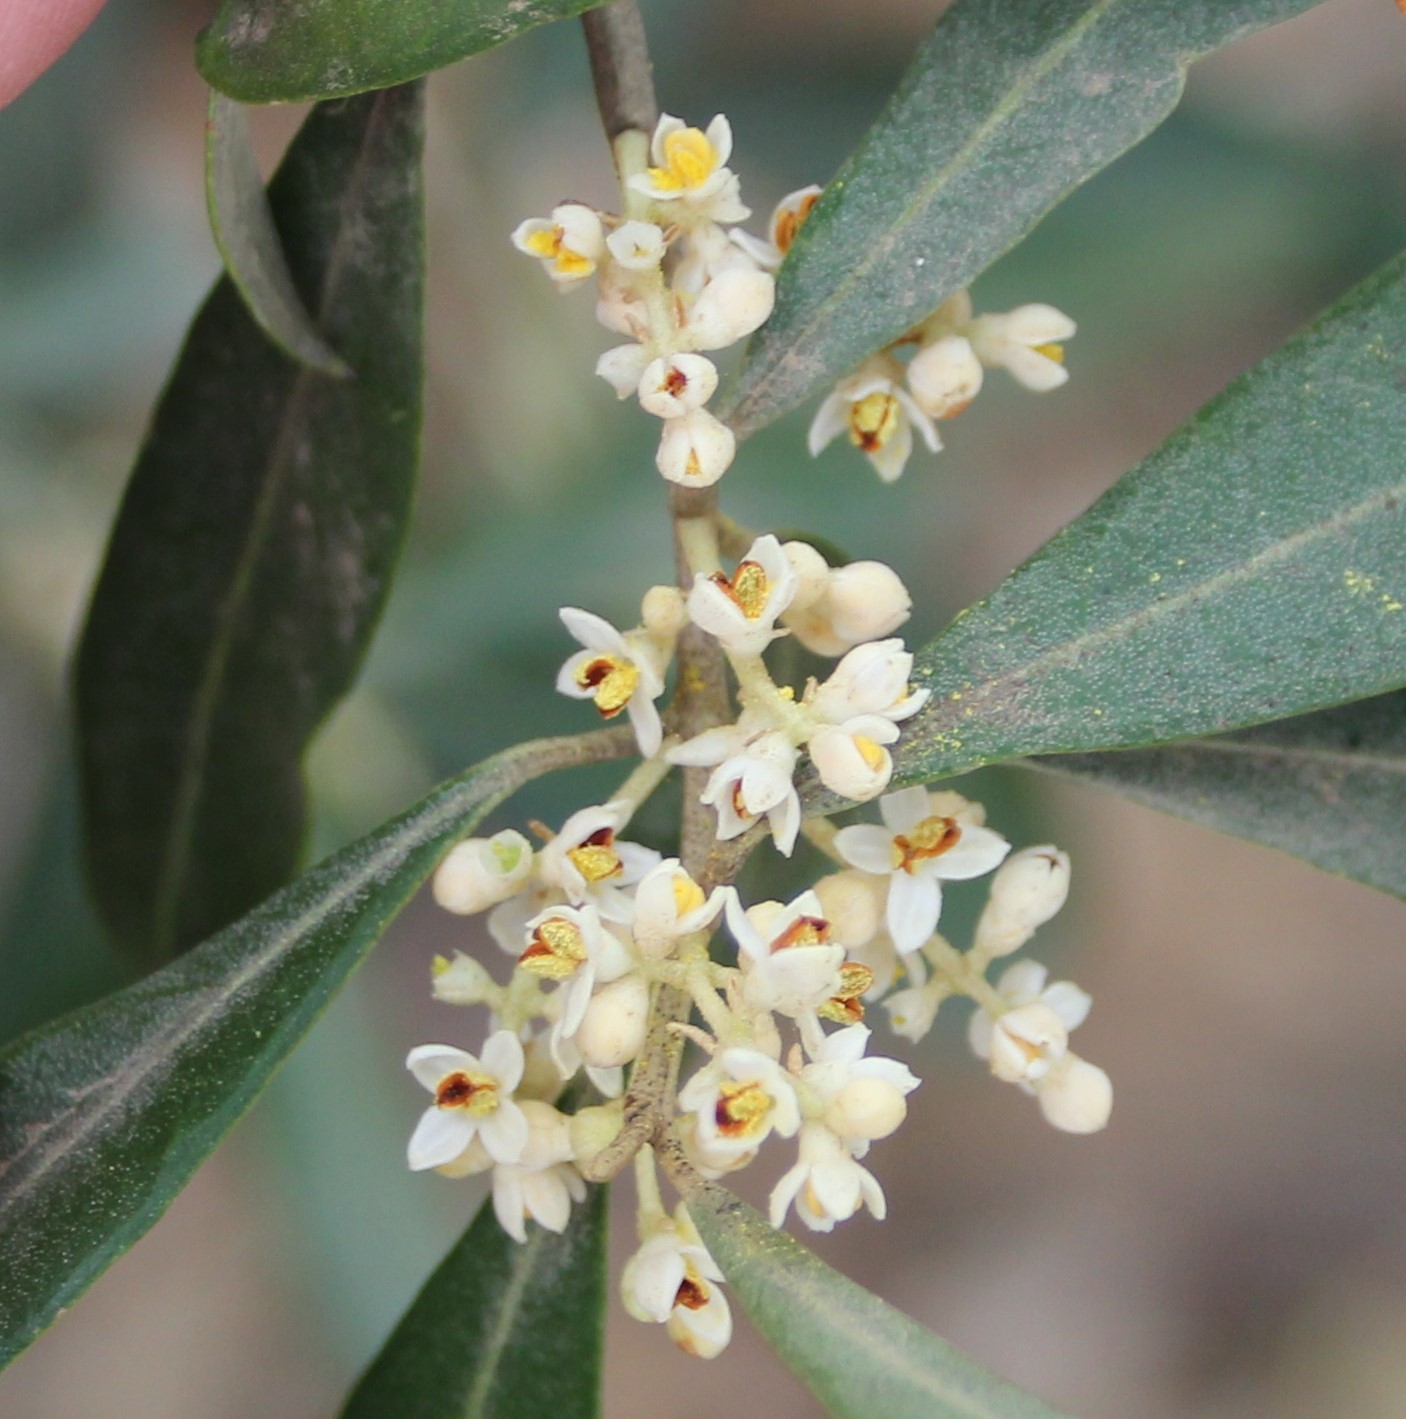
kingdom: Plantae
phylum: Tracheophyta
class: Magnoliopsida
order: Lamiales
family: Oleaceae
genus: Olea
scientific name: Olea europaea
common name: Olive
